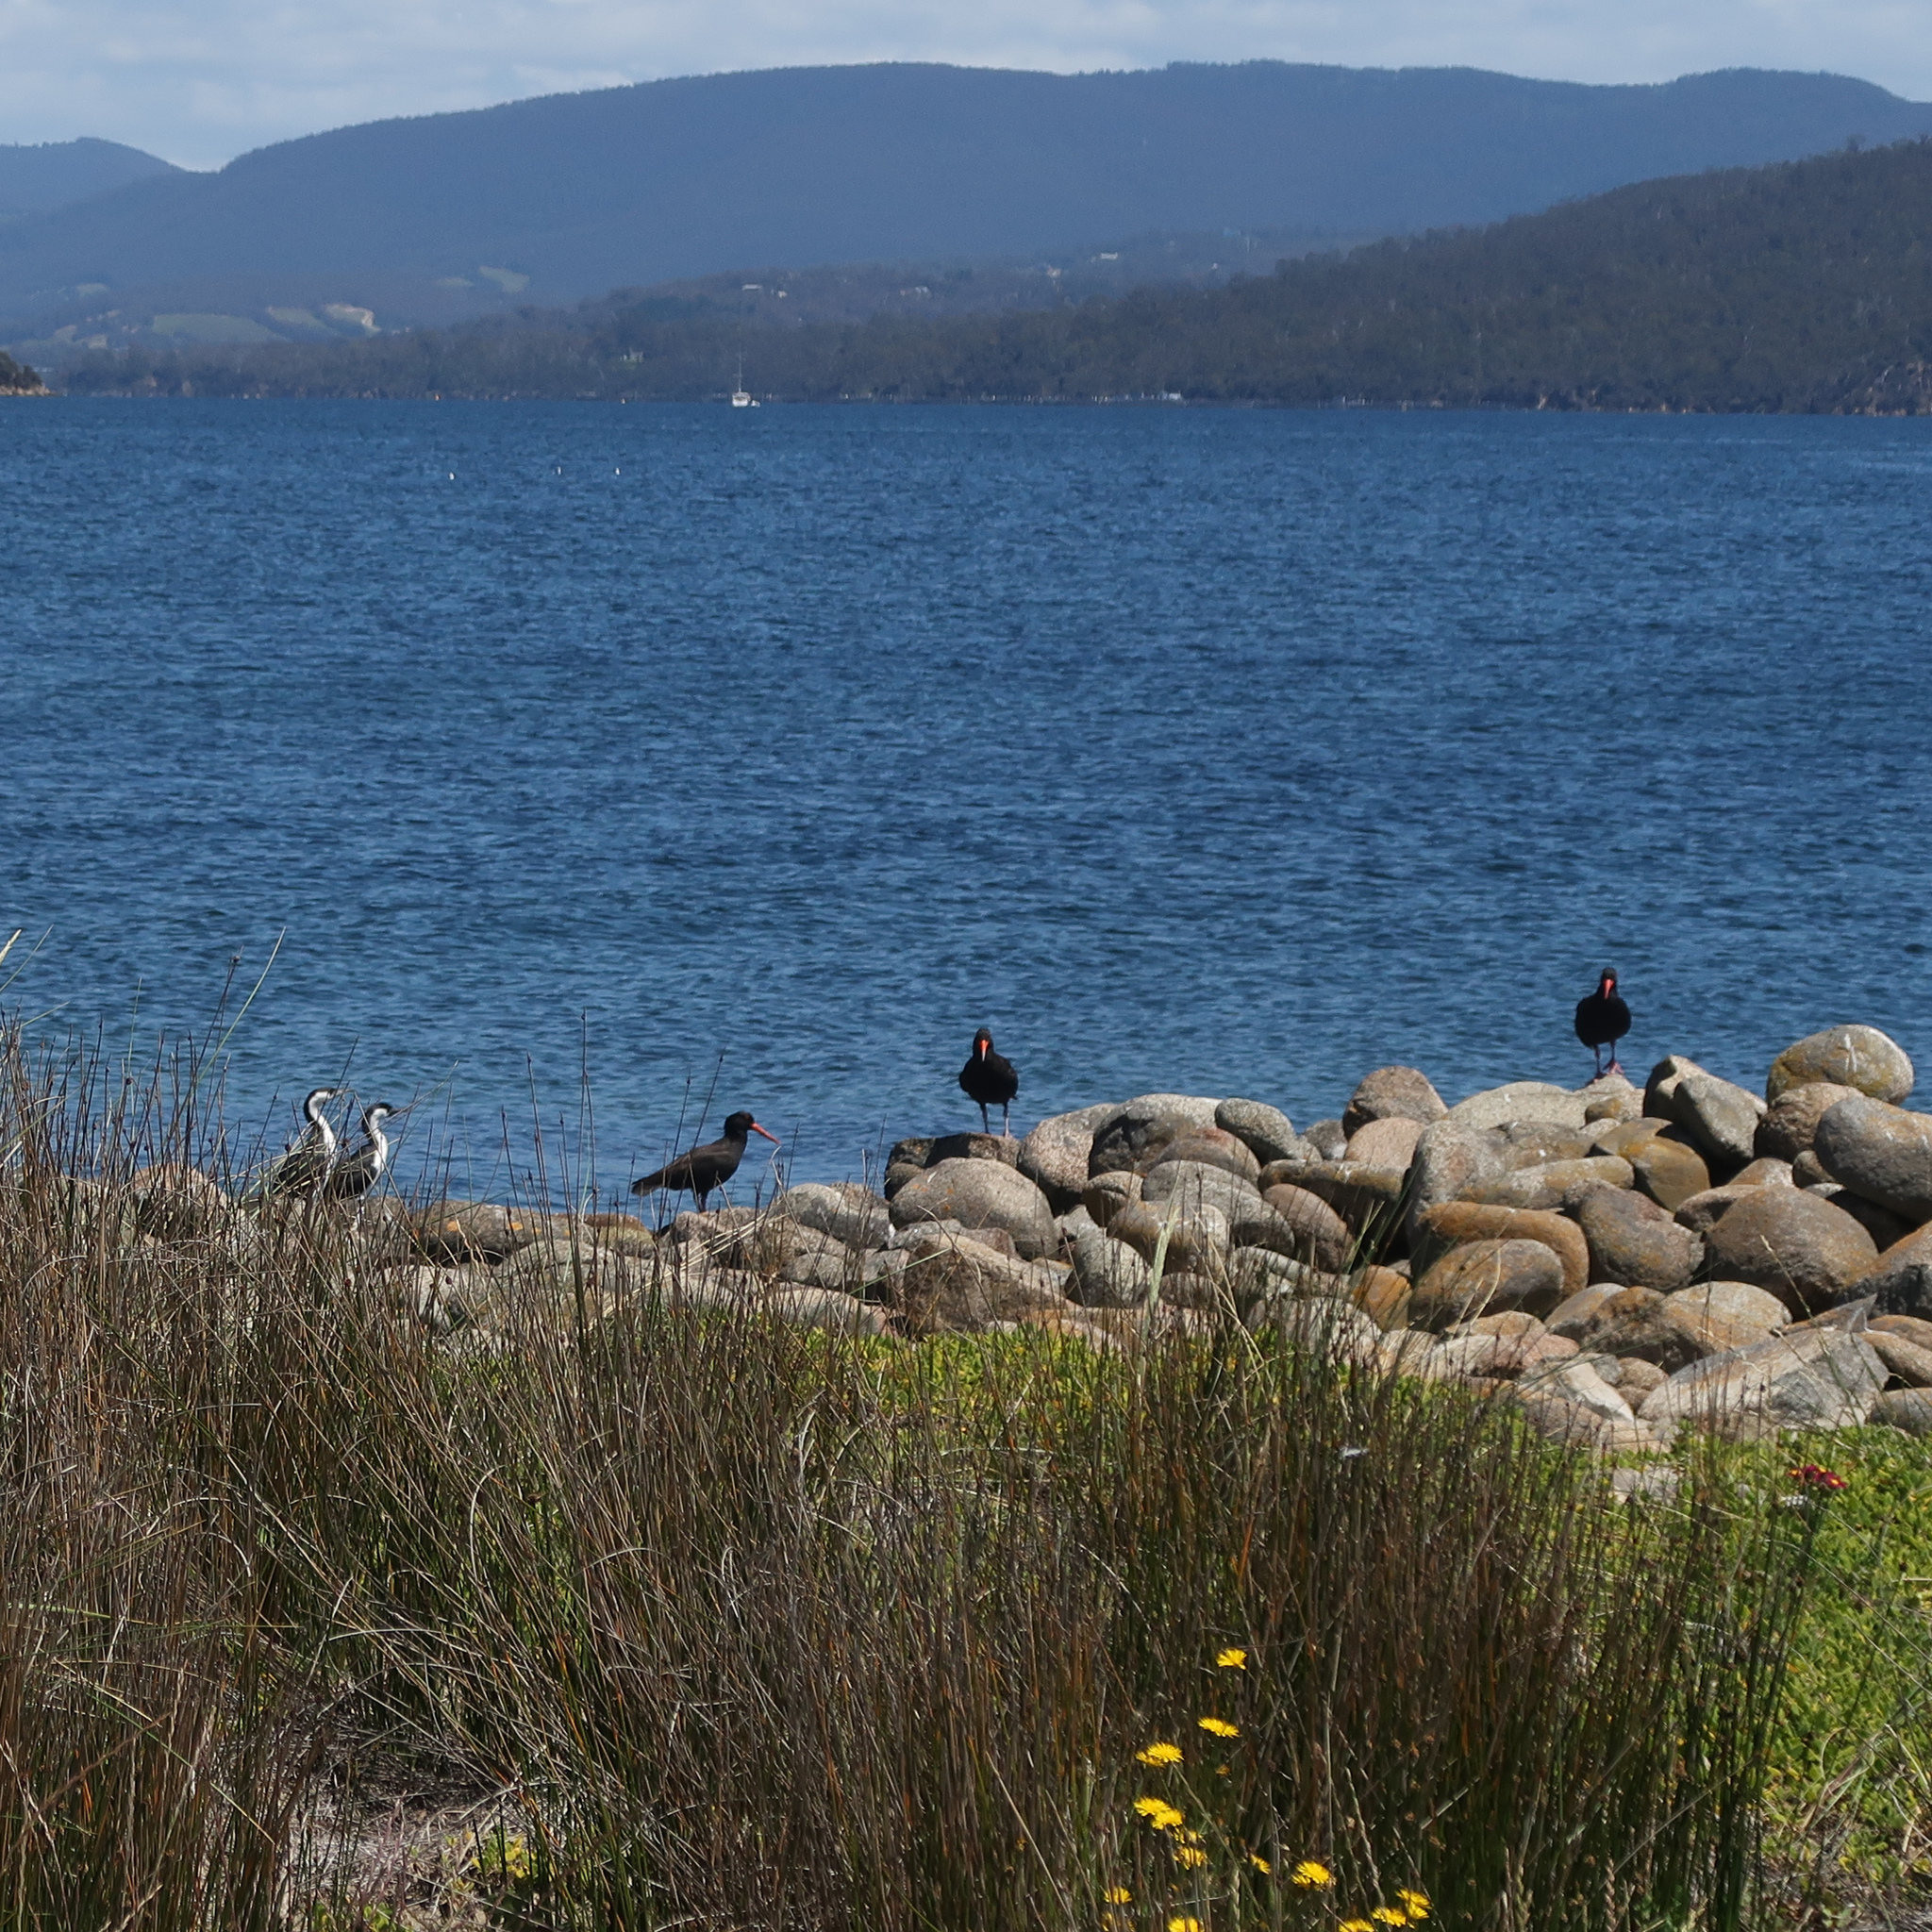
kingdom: Animalia
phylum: Chordata
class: Aves
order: Charadriiformes
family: Haematopodidae
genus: Haematopus
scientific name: Haematopus fuliginosus
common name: Sooty oystercatcher
